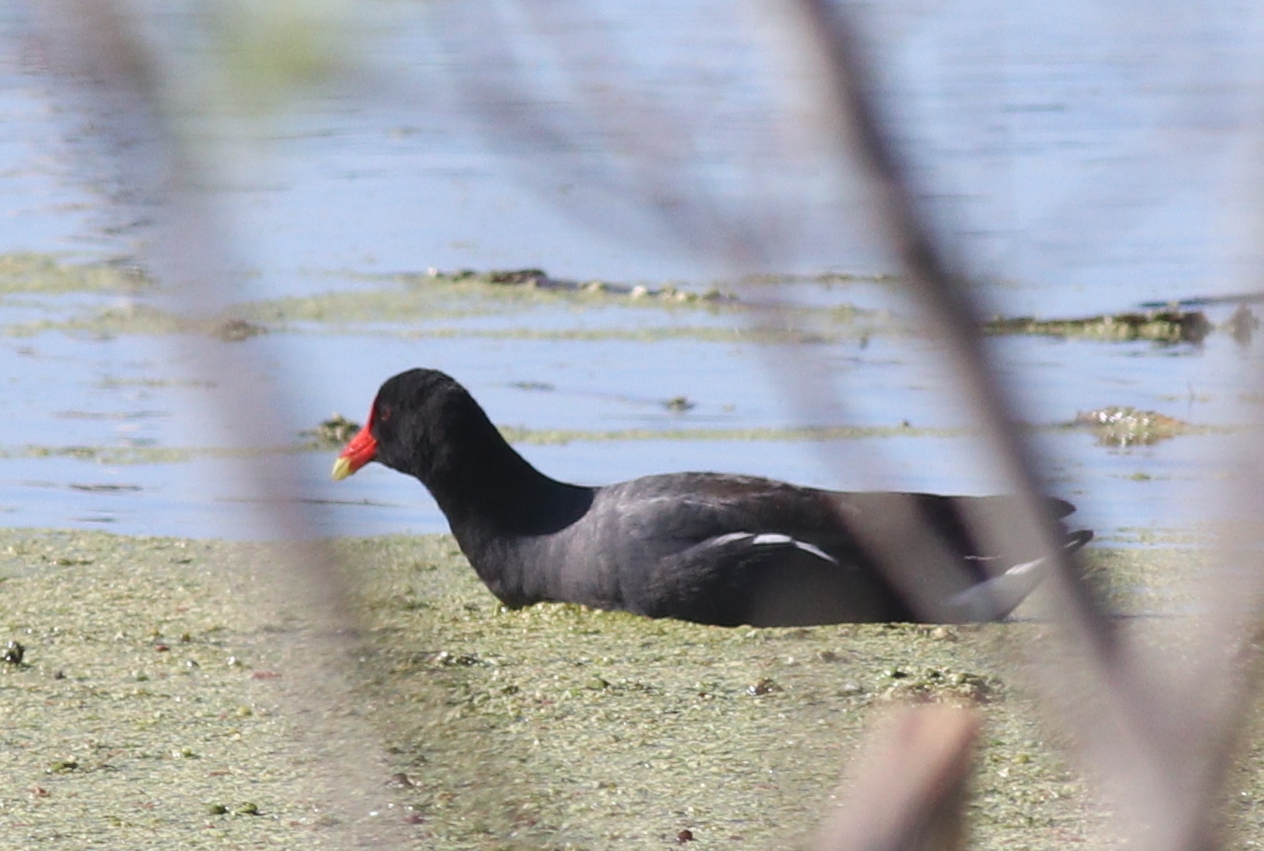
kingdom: Animalia
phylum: Chordata
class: Aves
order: Gruiformes
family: Rallidae
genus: Gallinula
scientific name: Gallinula chloropus
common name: Common moorhen
